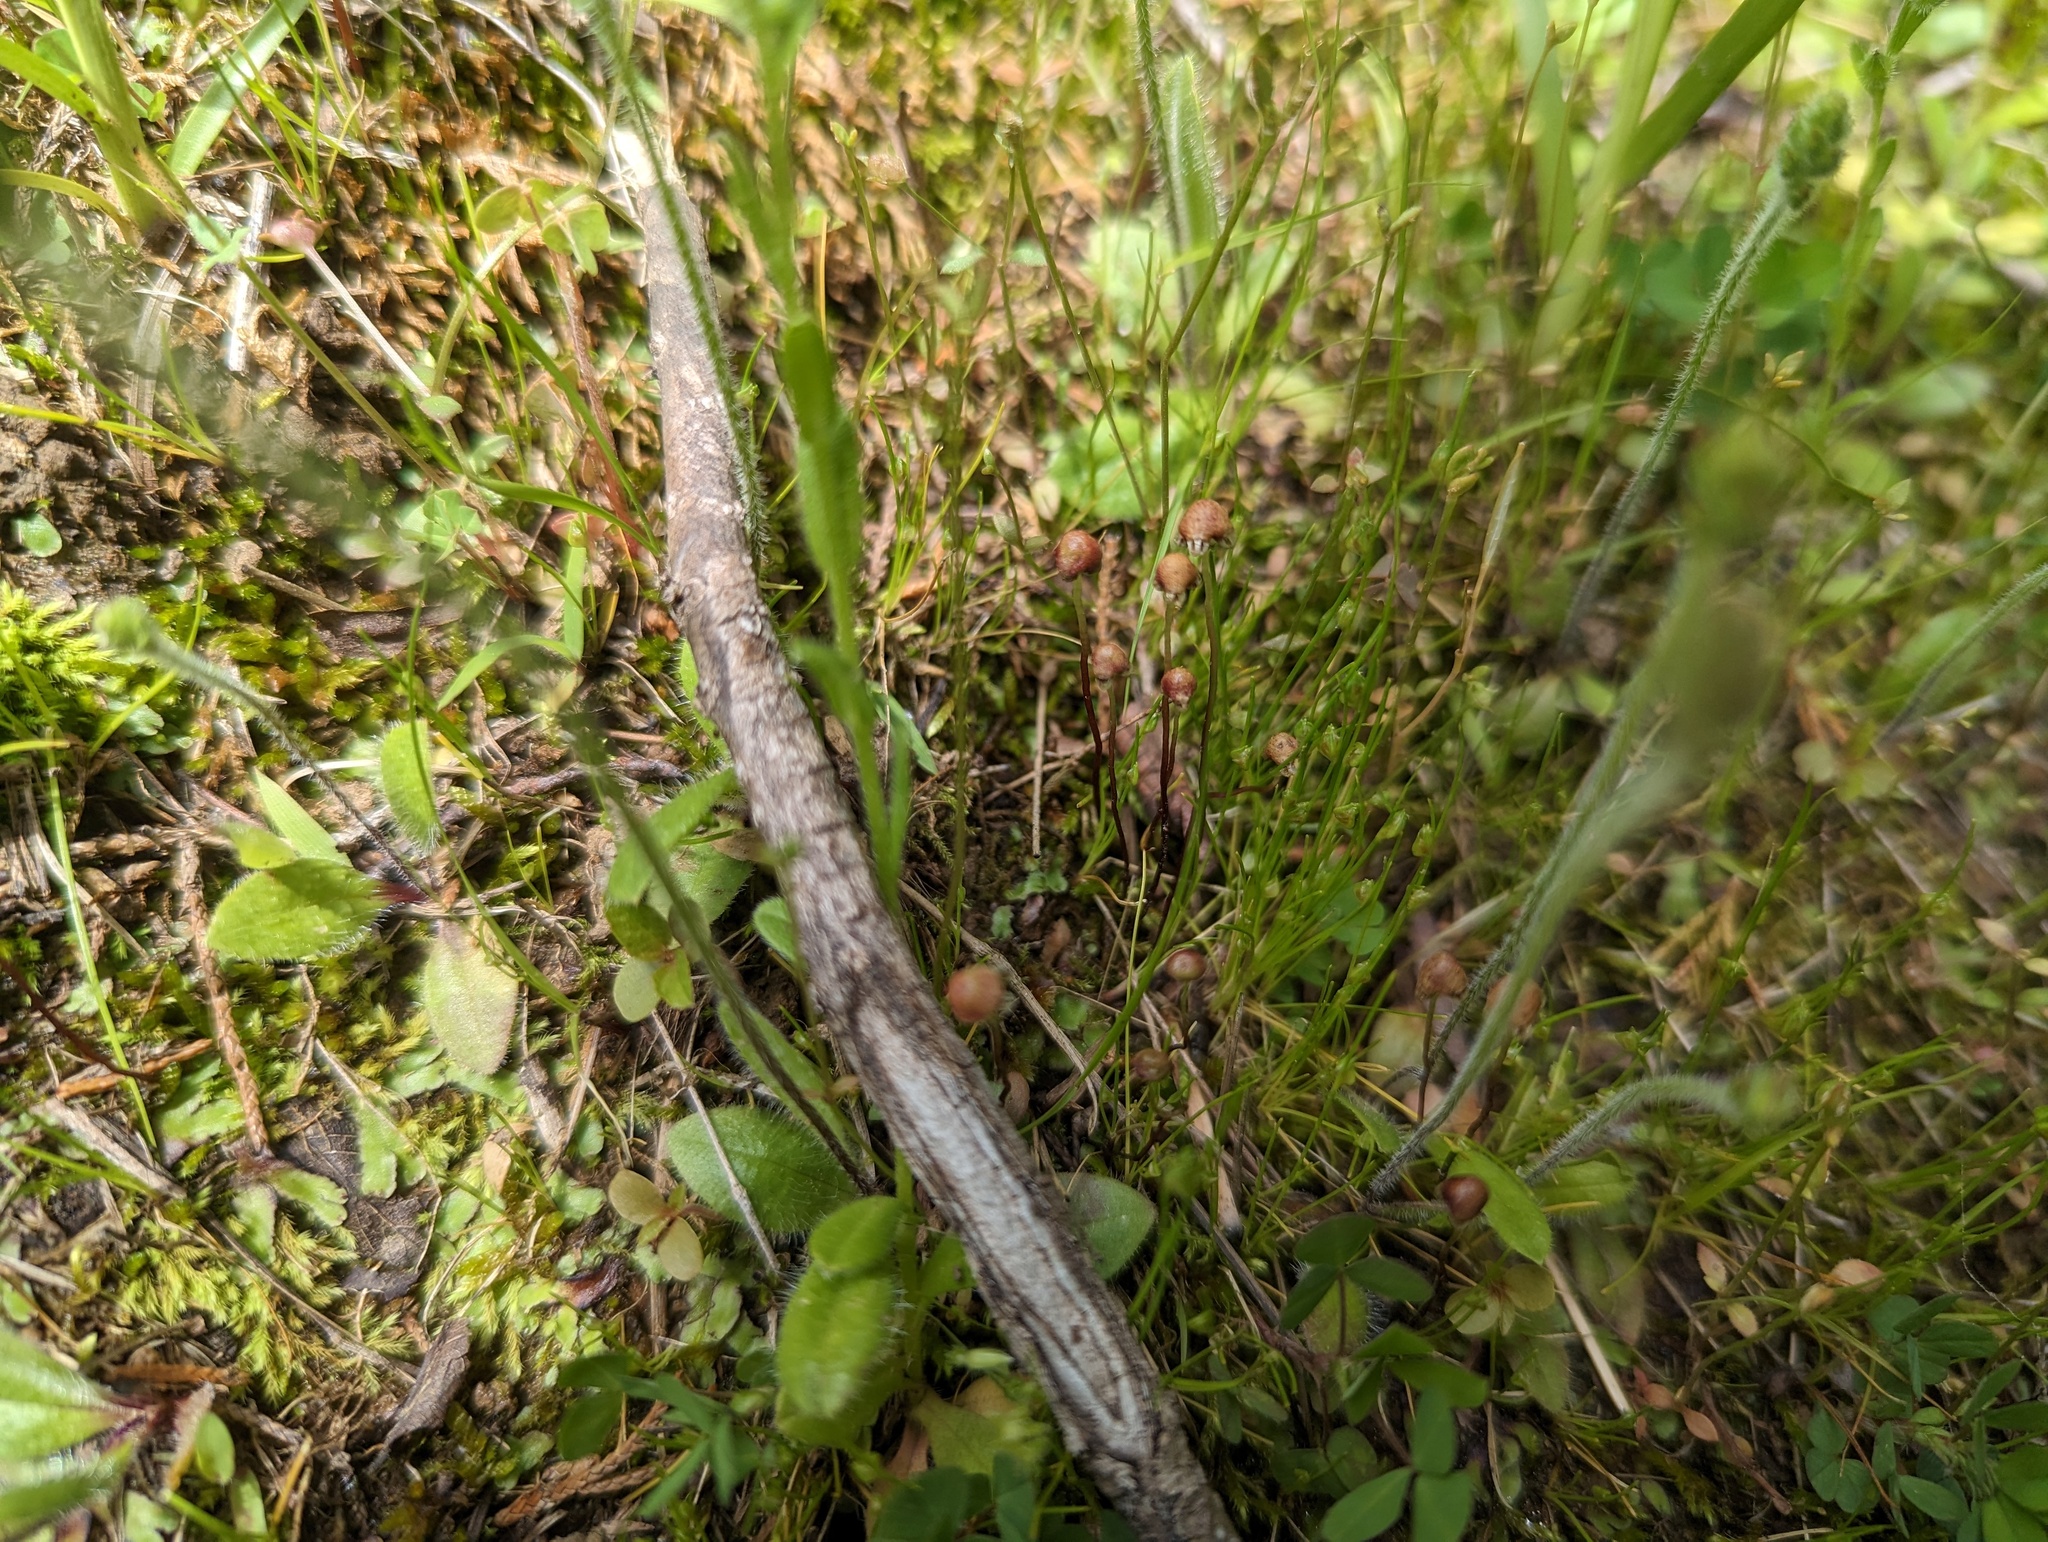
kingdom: Plantae
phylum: Marchantiophyta
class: Marchantiopsida
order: Marchantiales
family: Aytoniaceae
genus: Asterella
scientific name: Asterella tenella
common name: Delicate starwort
